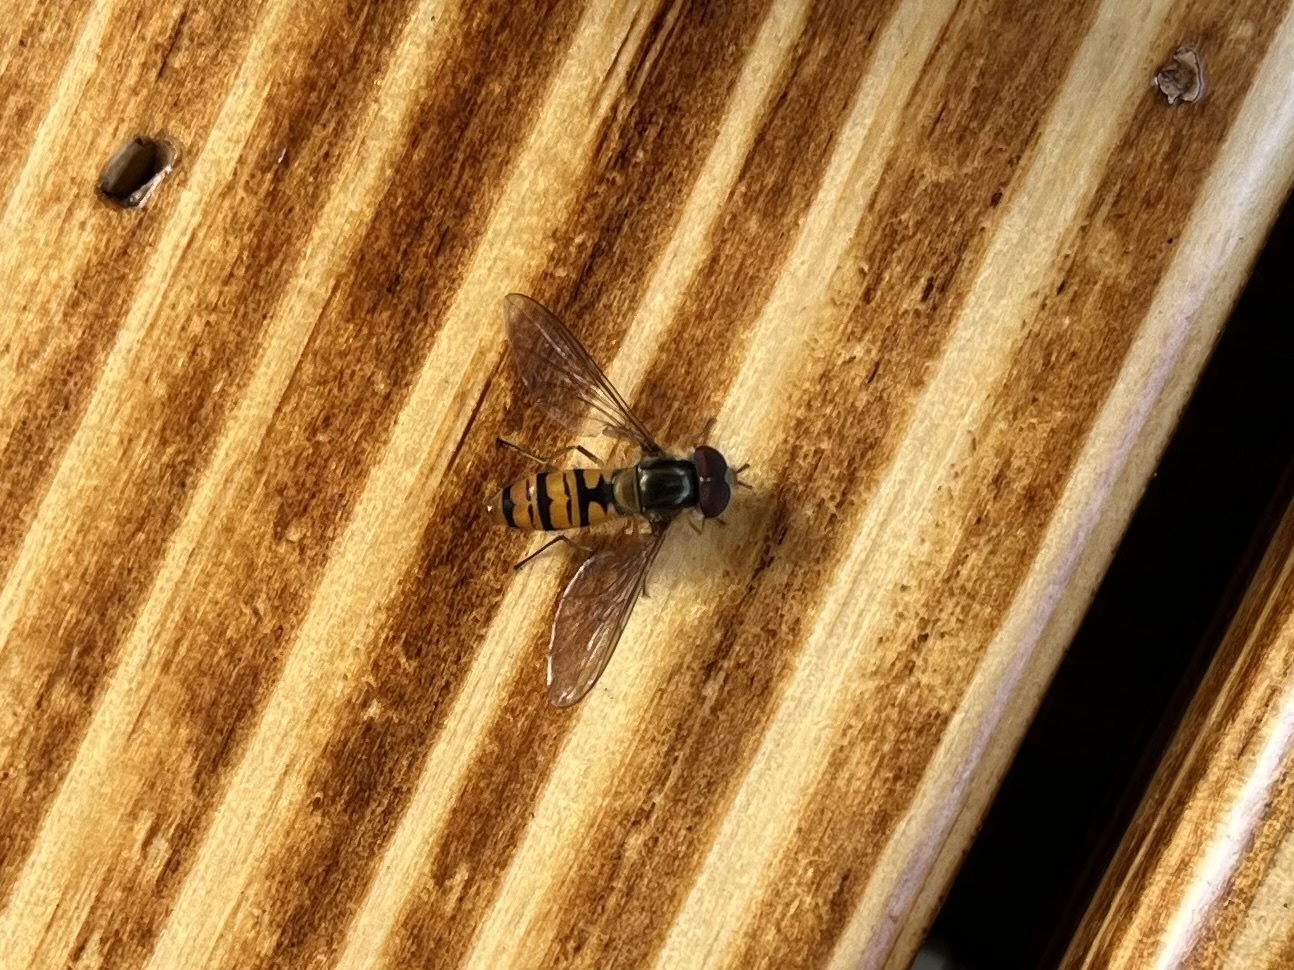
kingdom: Animalia
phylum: Arthropoda
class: Insecta
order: Diptera
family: Syrphidae
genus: Episyrphus
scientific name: Episyrphus balteatus
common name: Marmalade hoverfly
